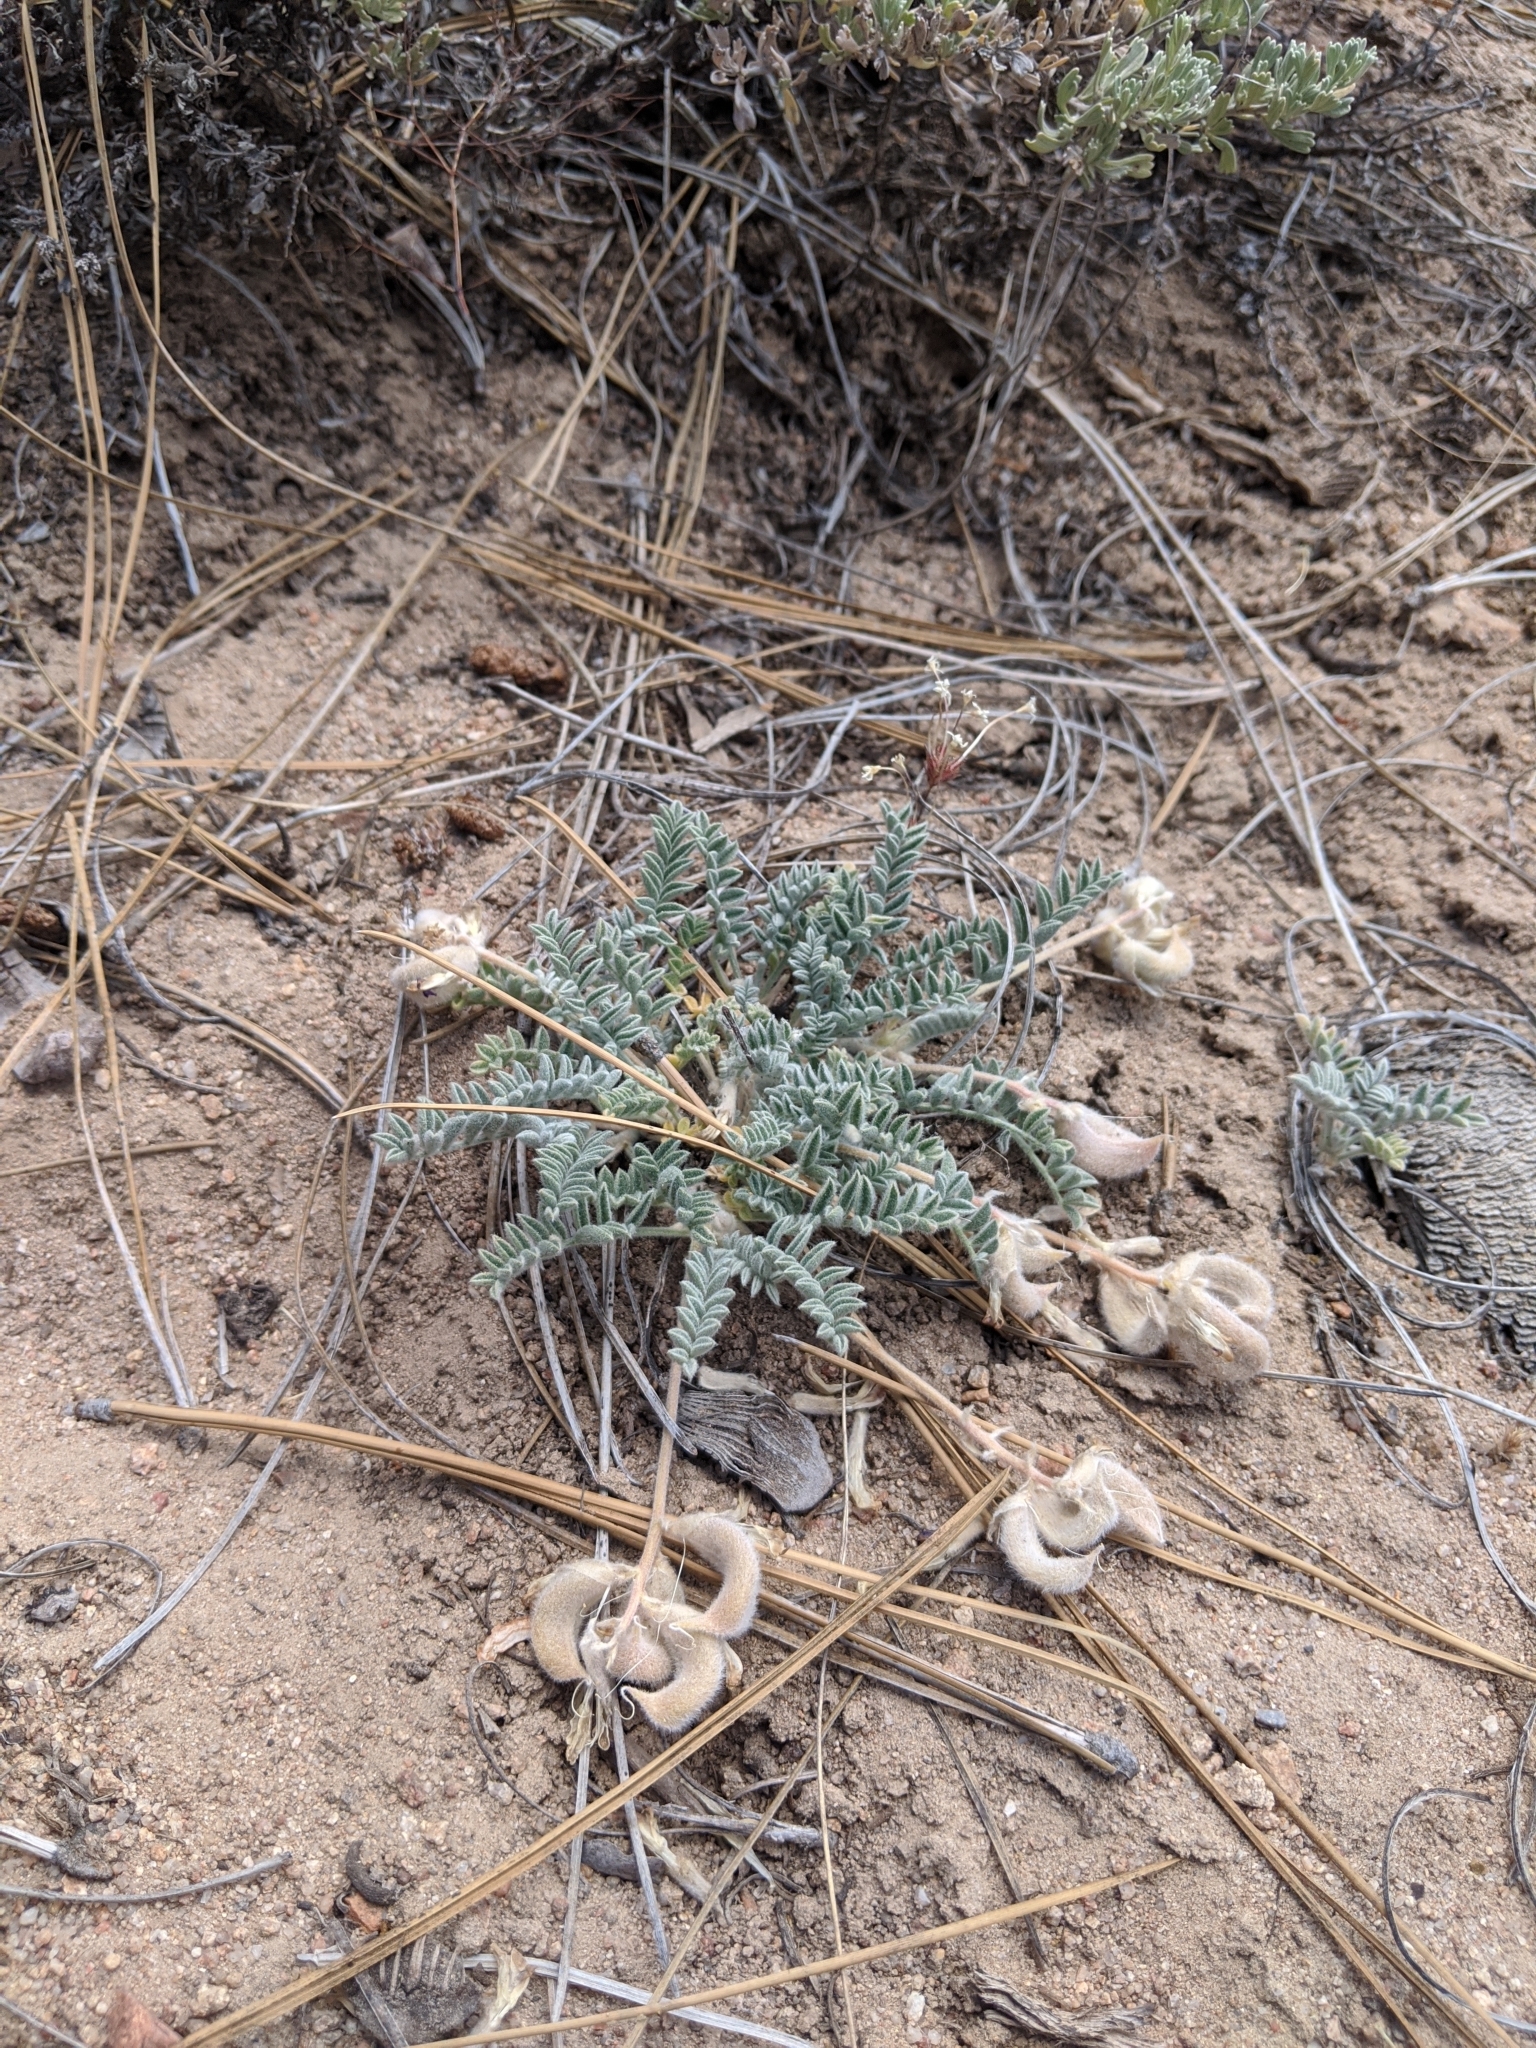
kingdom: Plantae
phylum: Tracheophyta
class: Magnoliopsida
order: Fabales
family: Fabaceae
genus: Astragalus
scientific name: Astragalus leucolobus
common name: Big bear valley woollypod
